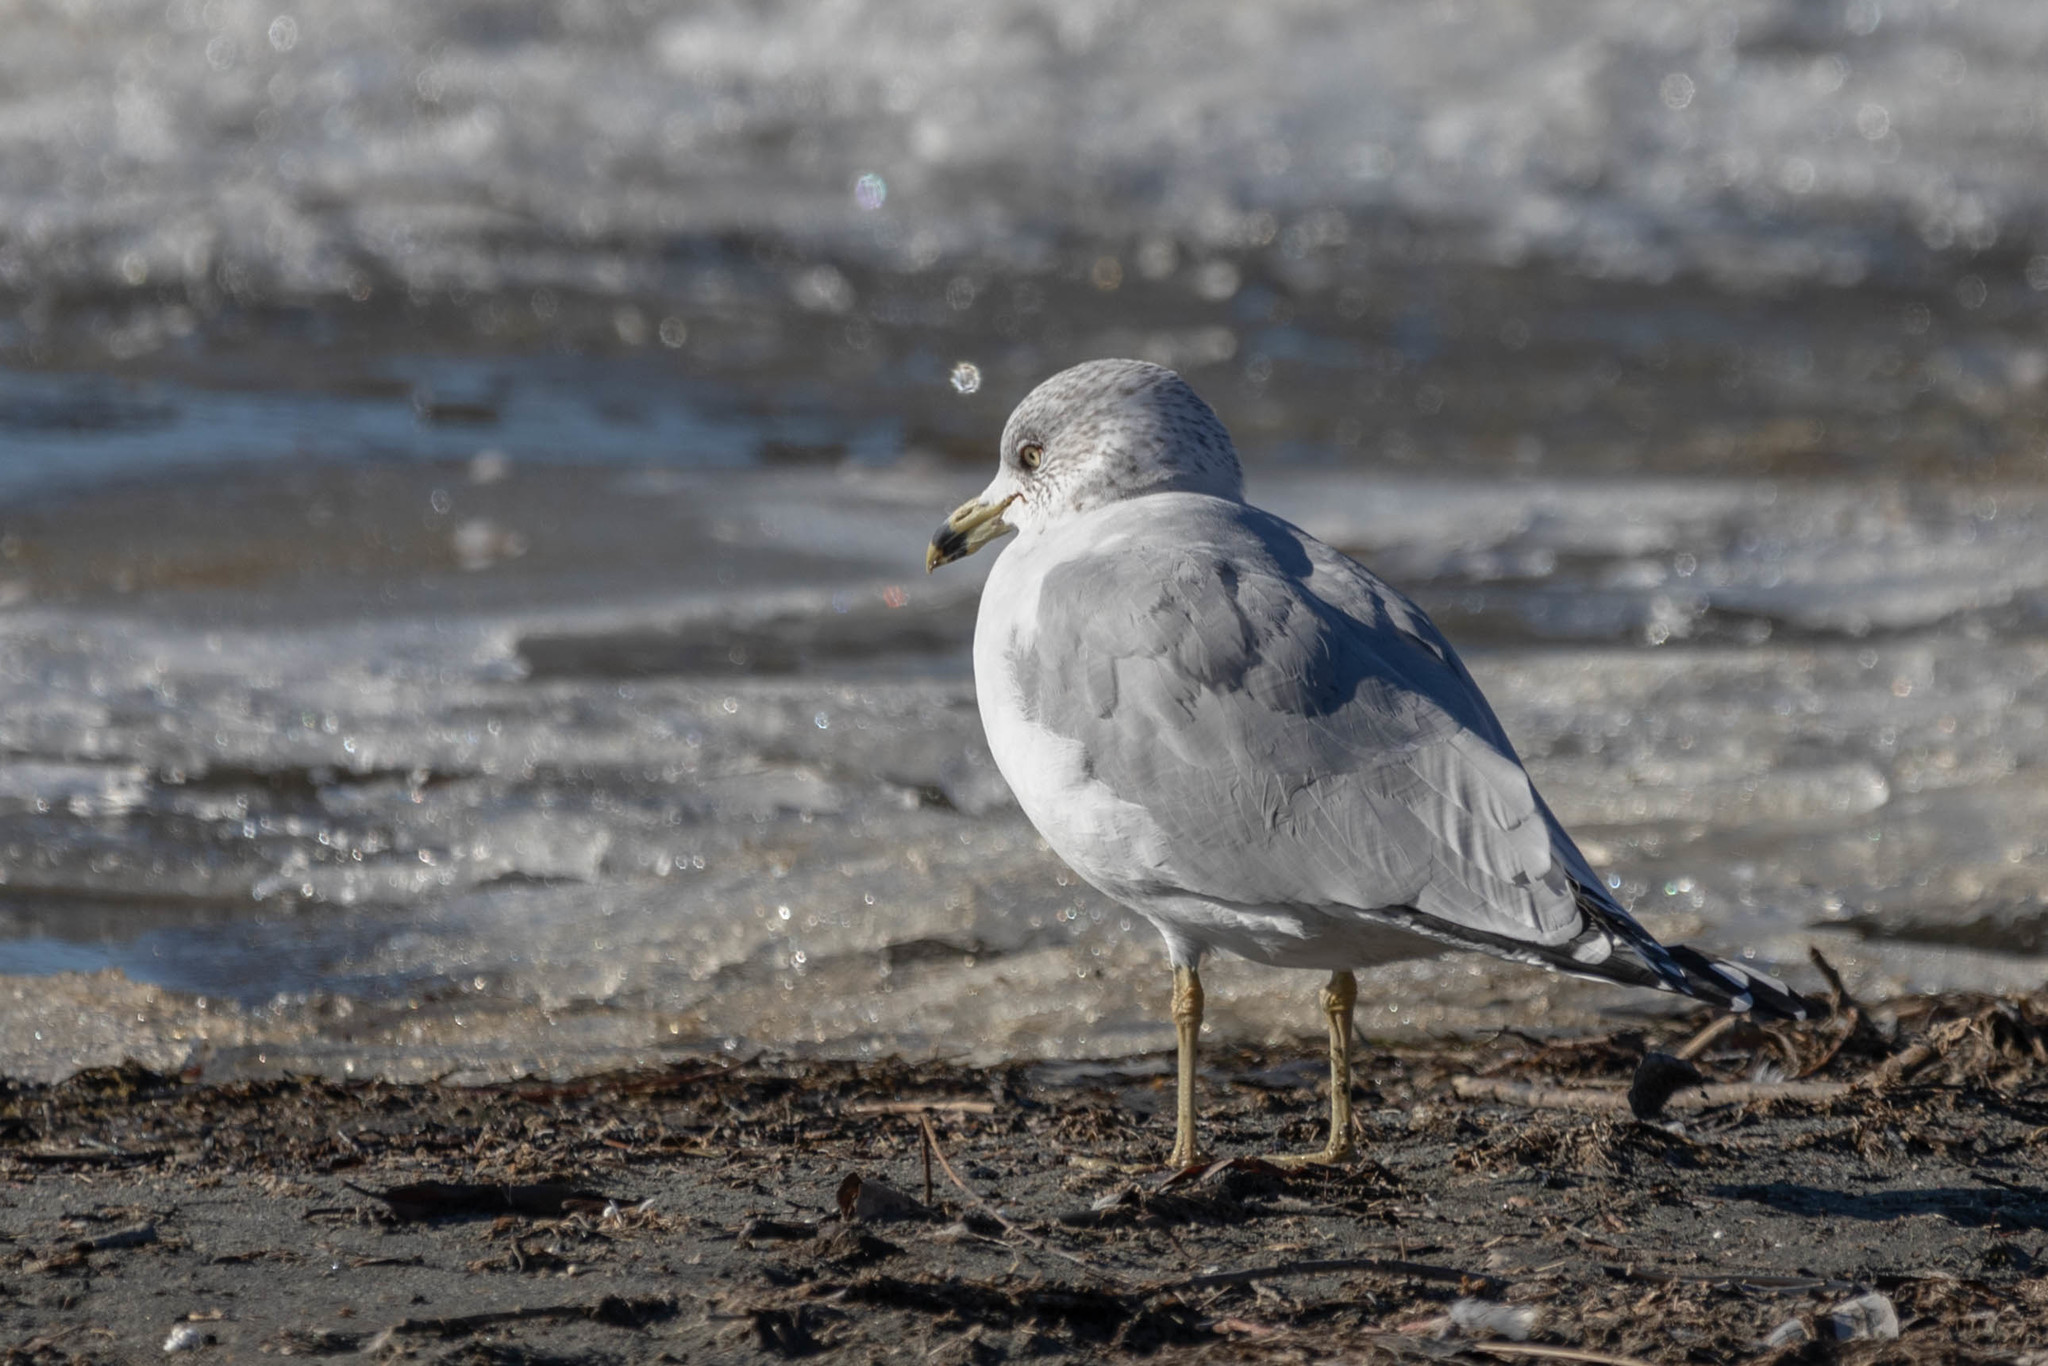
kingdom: Animalia
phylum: Chordata
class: Aves
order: Charadriiformes
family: Laridae
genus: Larus
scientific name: Larus delawarensis
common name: Ring-billed gull
